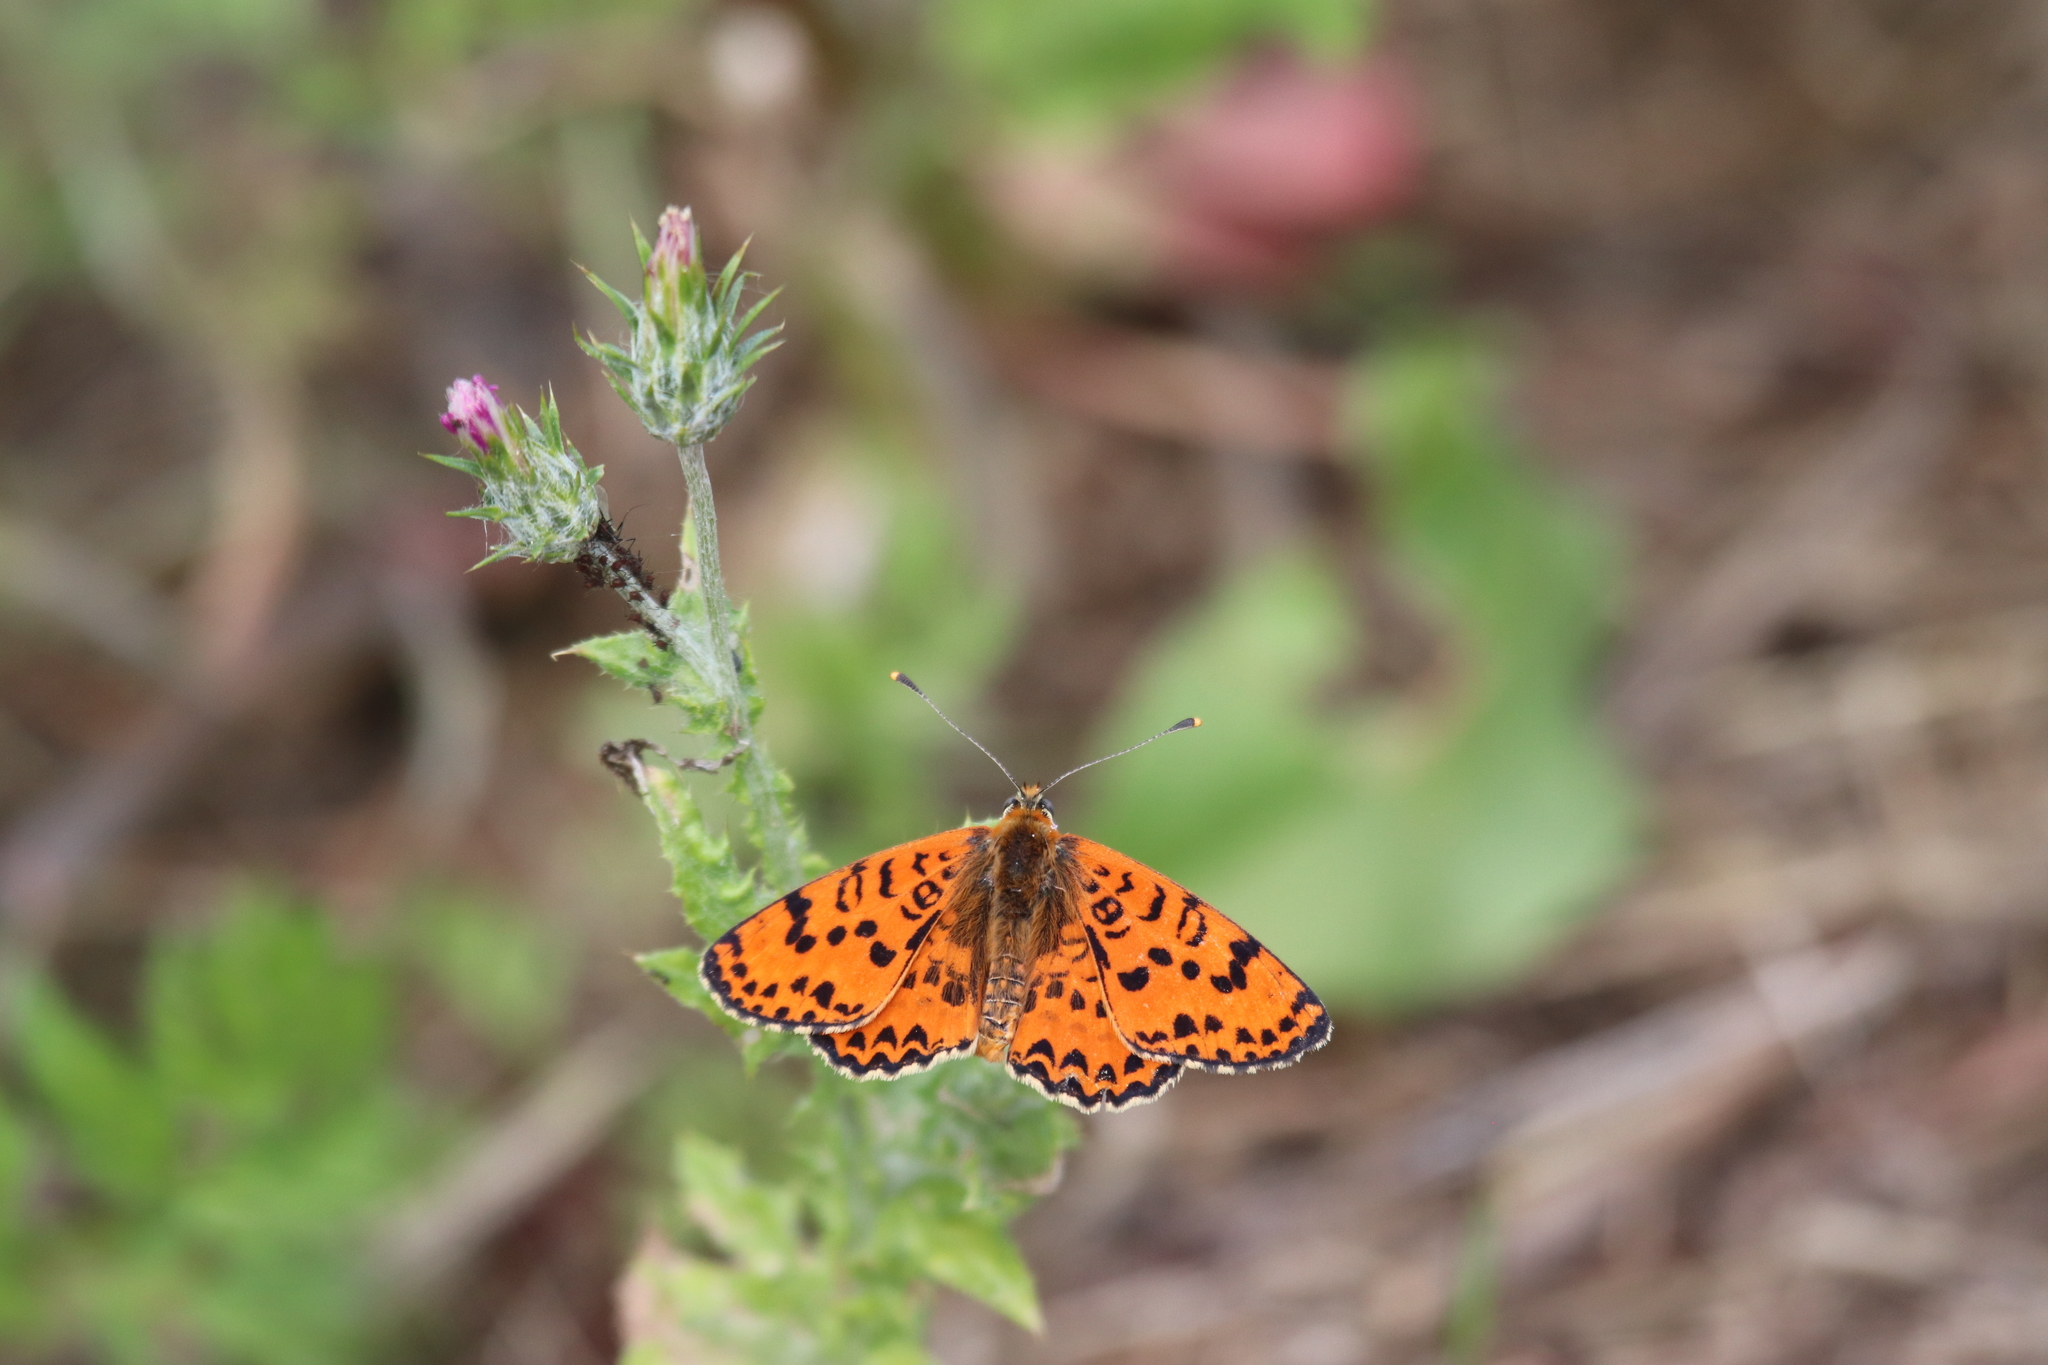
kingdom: Animalia
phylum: Arthropoda
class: Insecta
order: Lepidoptera
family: Nymphalidae
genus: Melitaea
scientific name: Melitaea didyma
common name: Spotted fritillary
